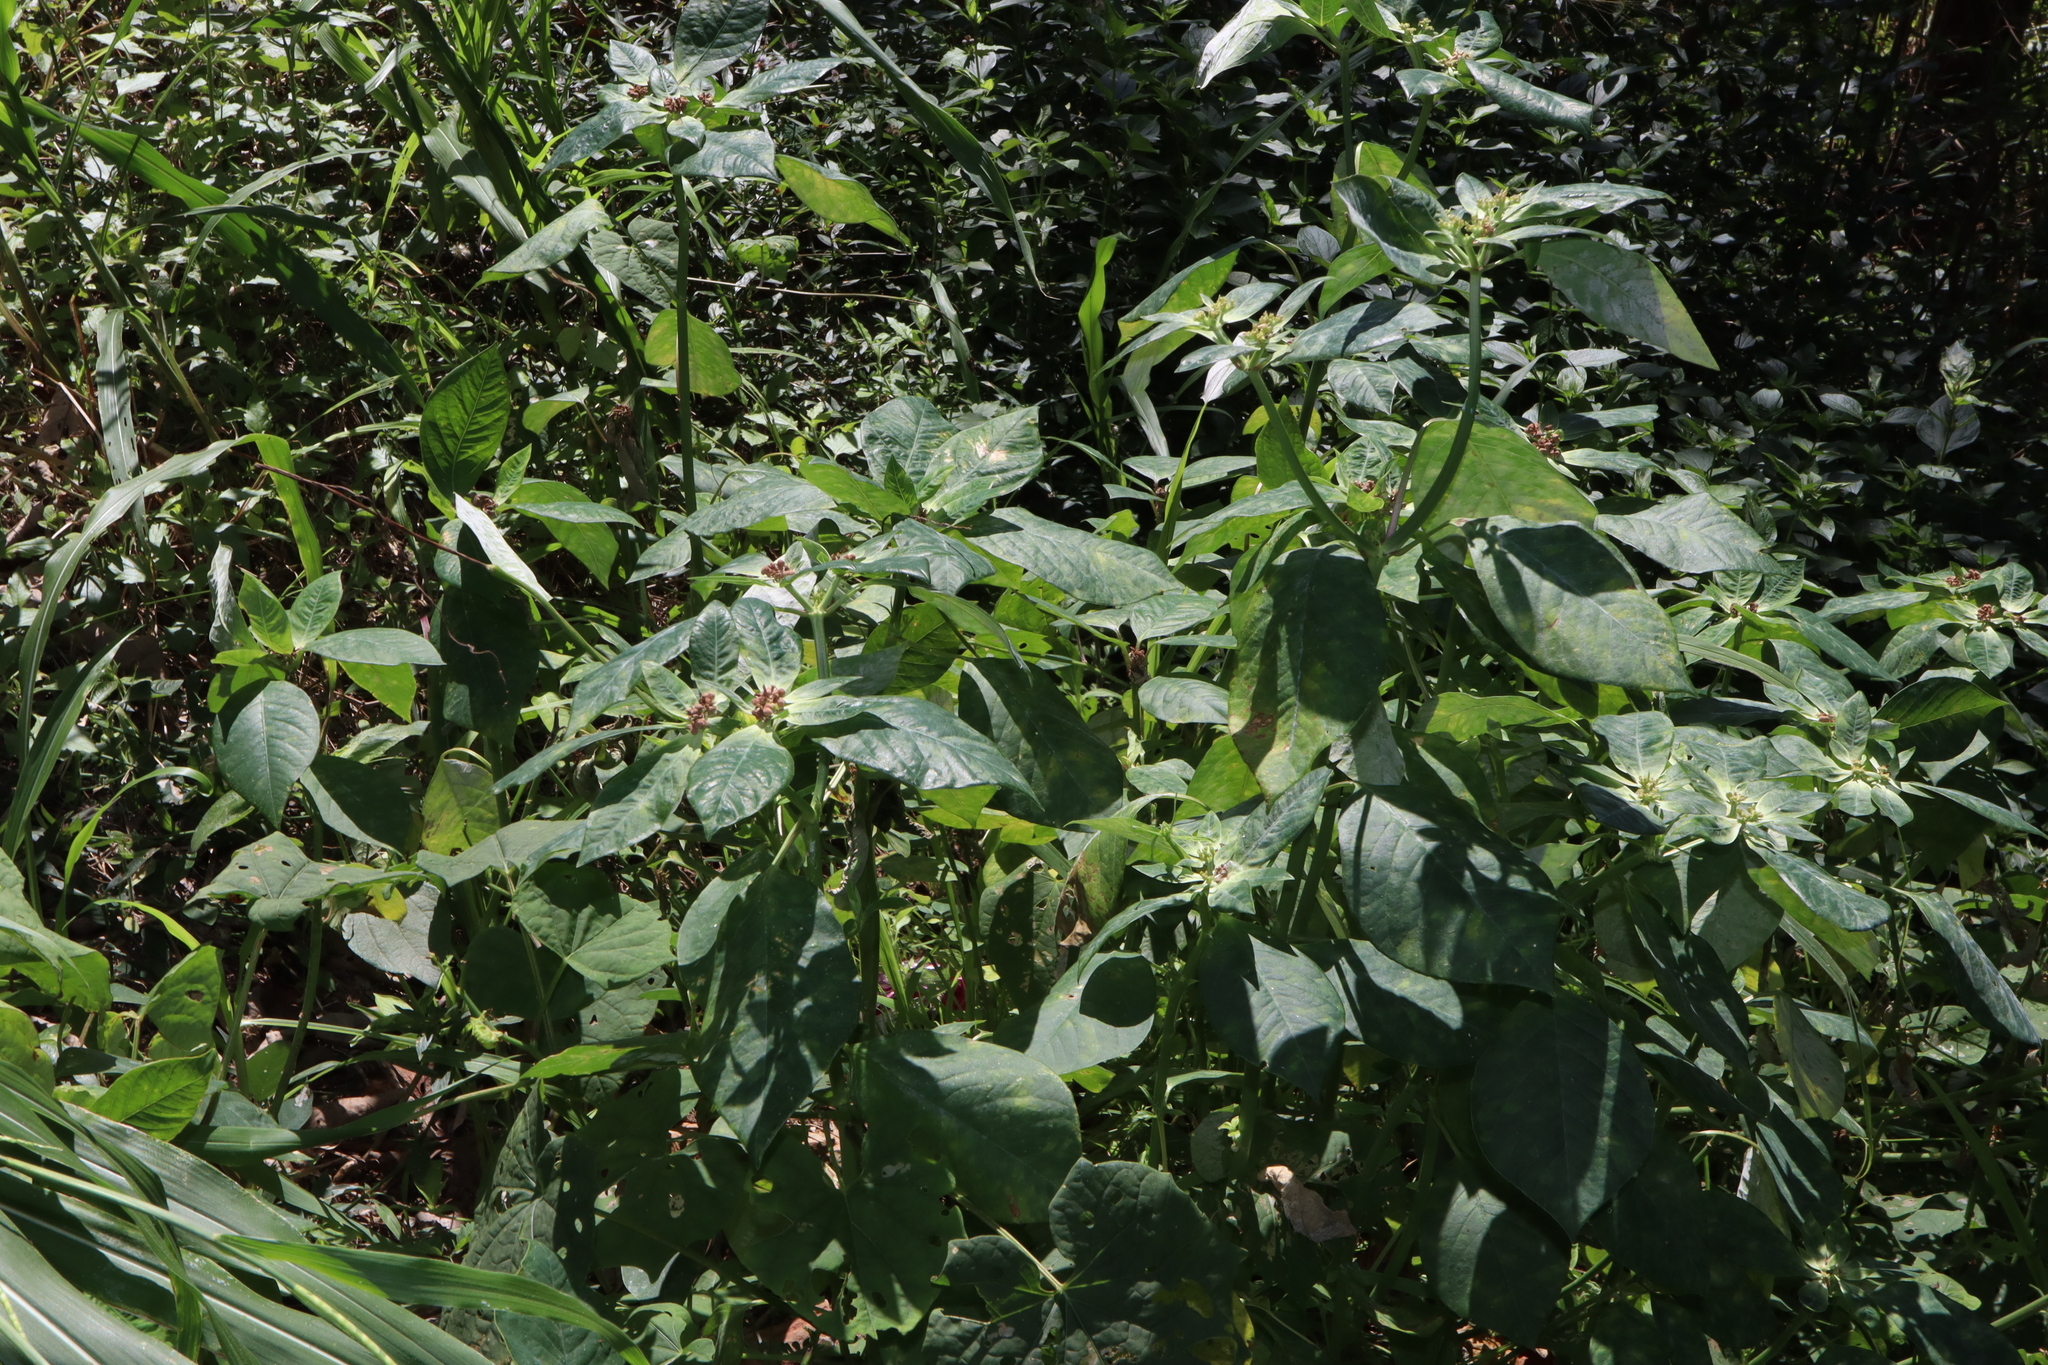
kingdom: Plantae
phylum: Tracheophyta
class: Magnoliopsida
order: Malpighiales
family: Euphorbiaceae
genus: Euphorbia
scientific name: Euphorbia heterophylla
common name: Mexican fireplant
